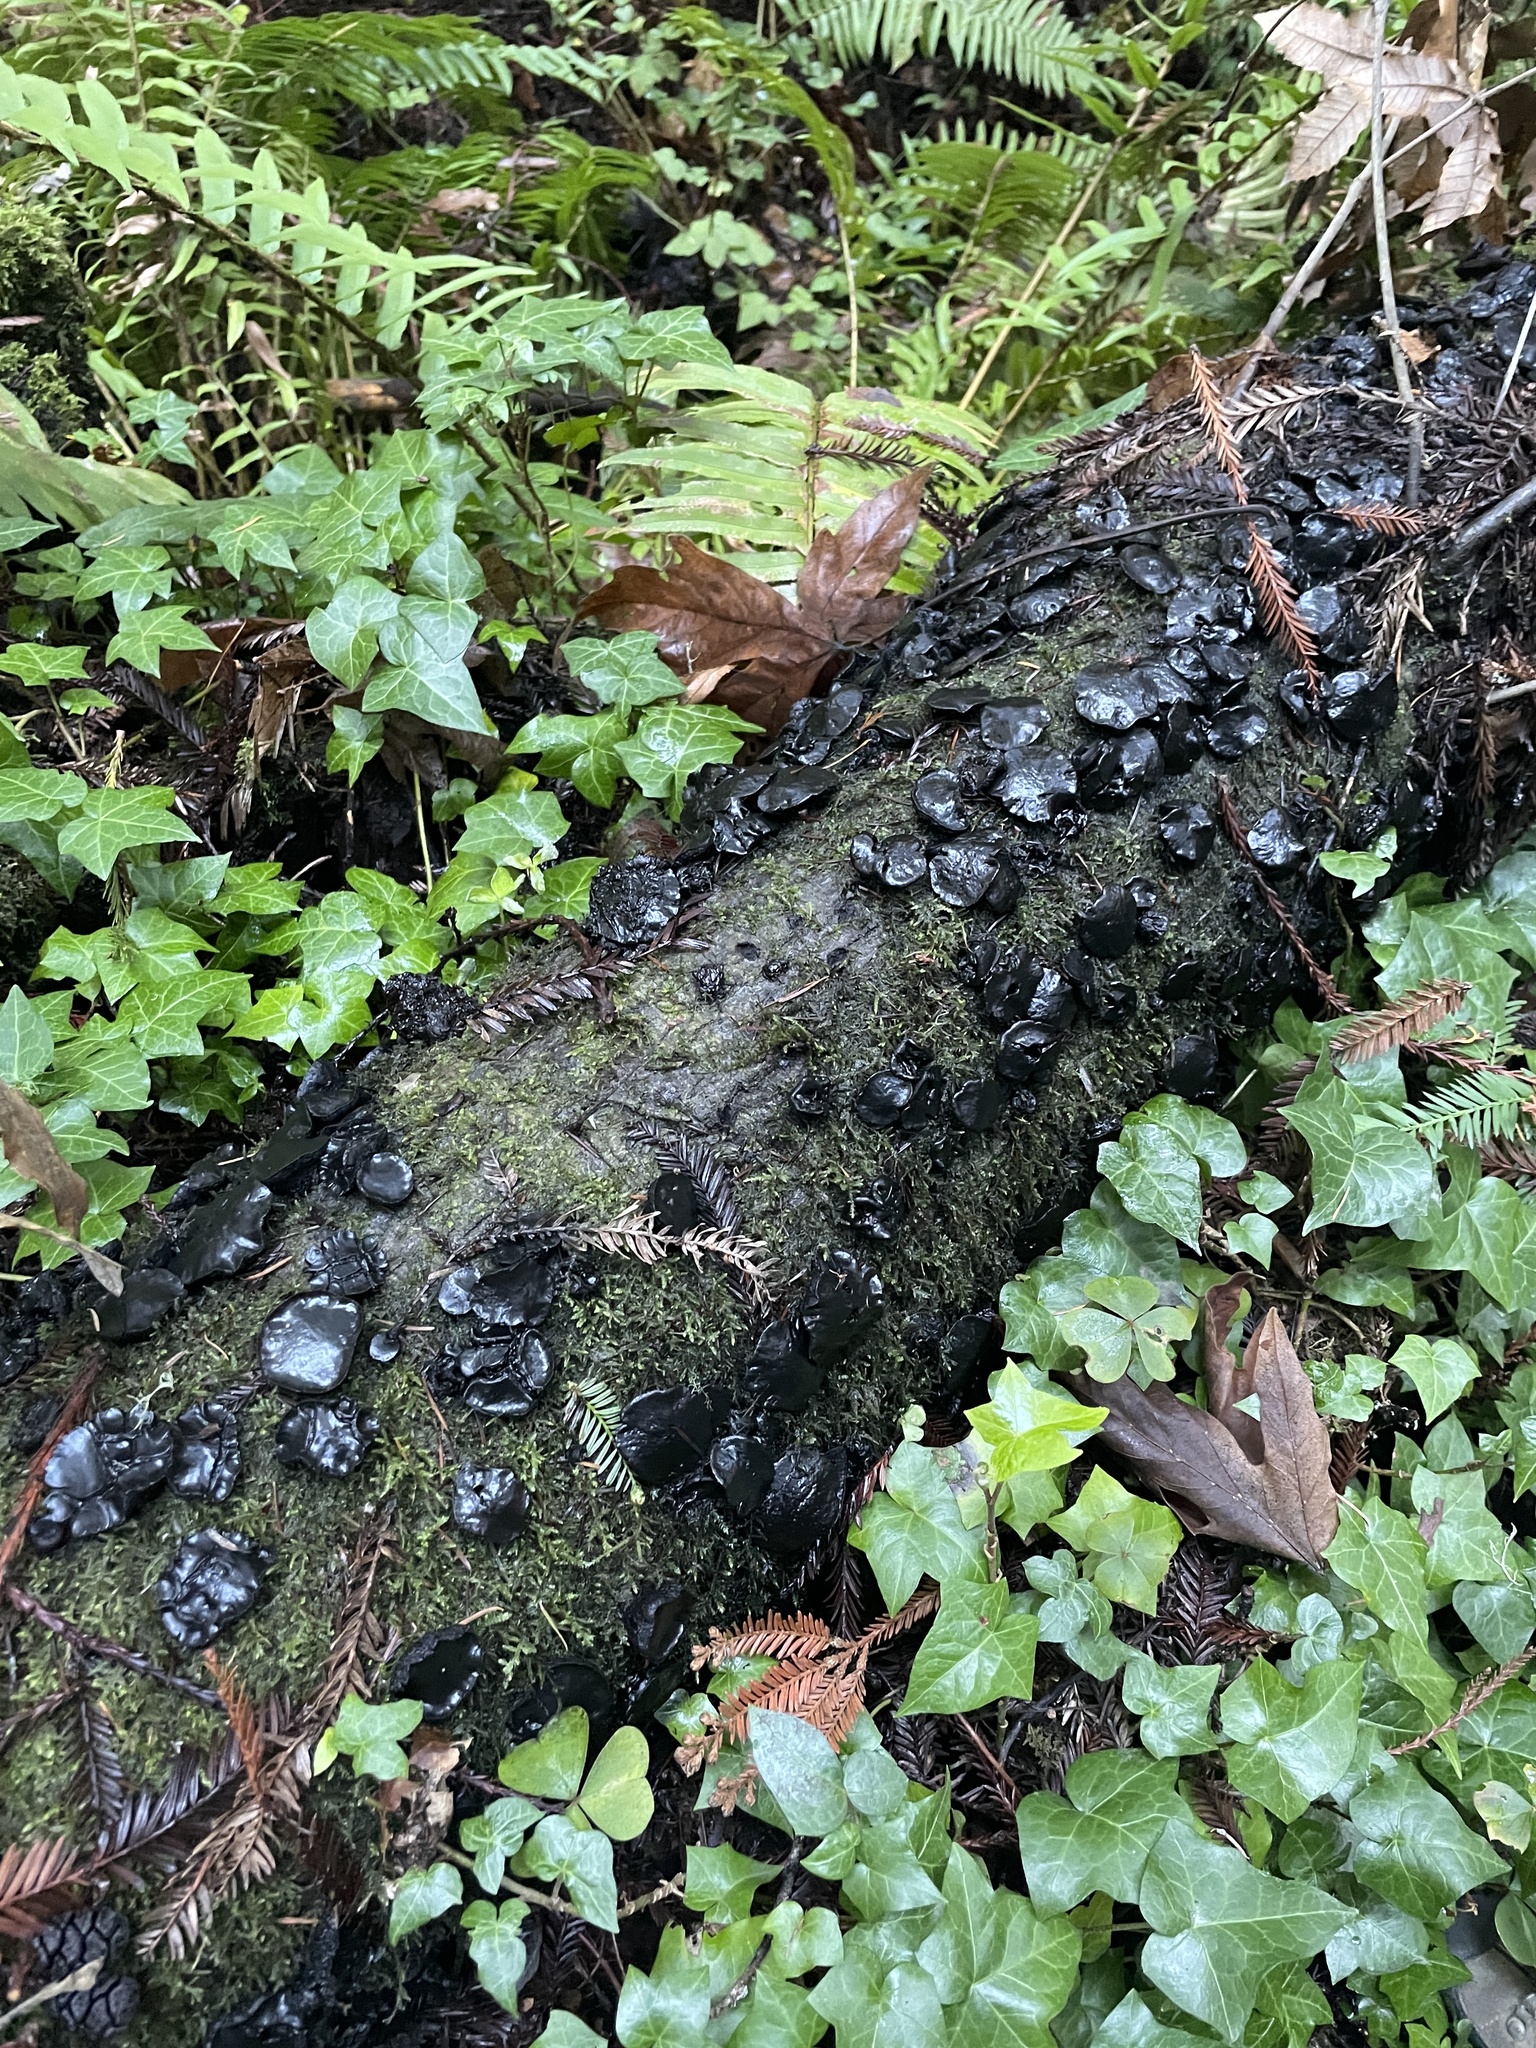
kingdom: Fungi
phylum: Ascomycota
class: Leotiomycetes
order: Phacidiales
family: Phacidiaceae
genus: Bulgaria
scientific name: Bulgaria inquinans
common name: Black bulgar
